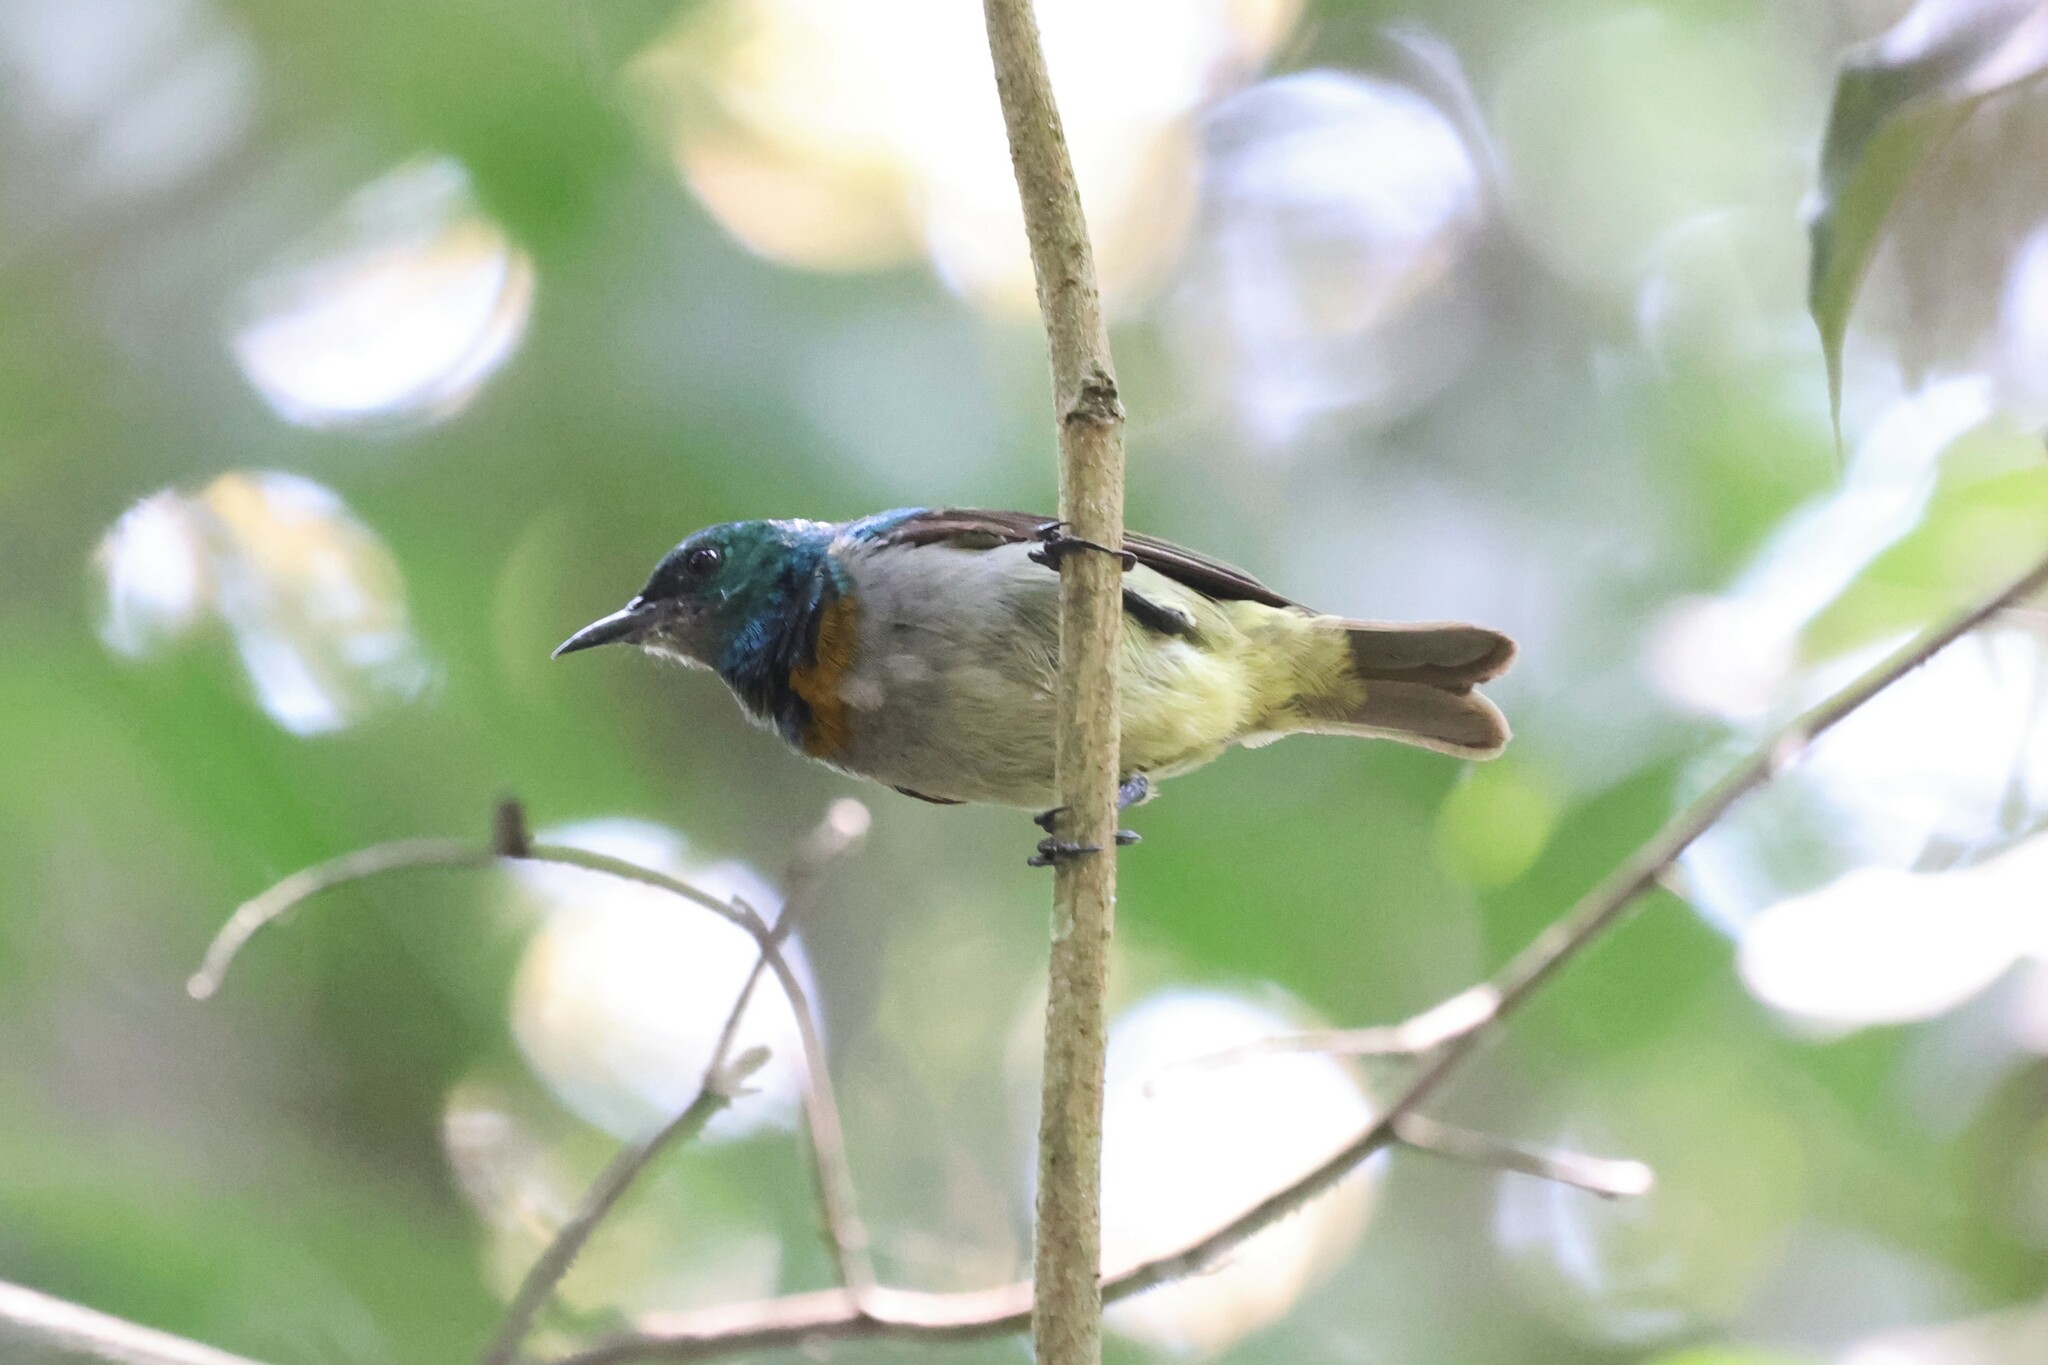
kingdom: Animalia
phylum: Chordata
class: Aves
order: Passeriformes
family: Nectariniidae
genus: Anthreptes
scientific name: Anthreptes rectirostris
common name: Grey-chinned sunbird
